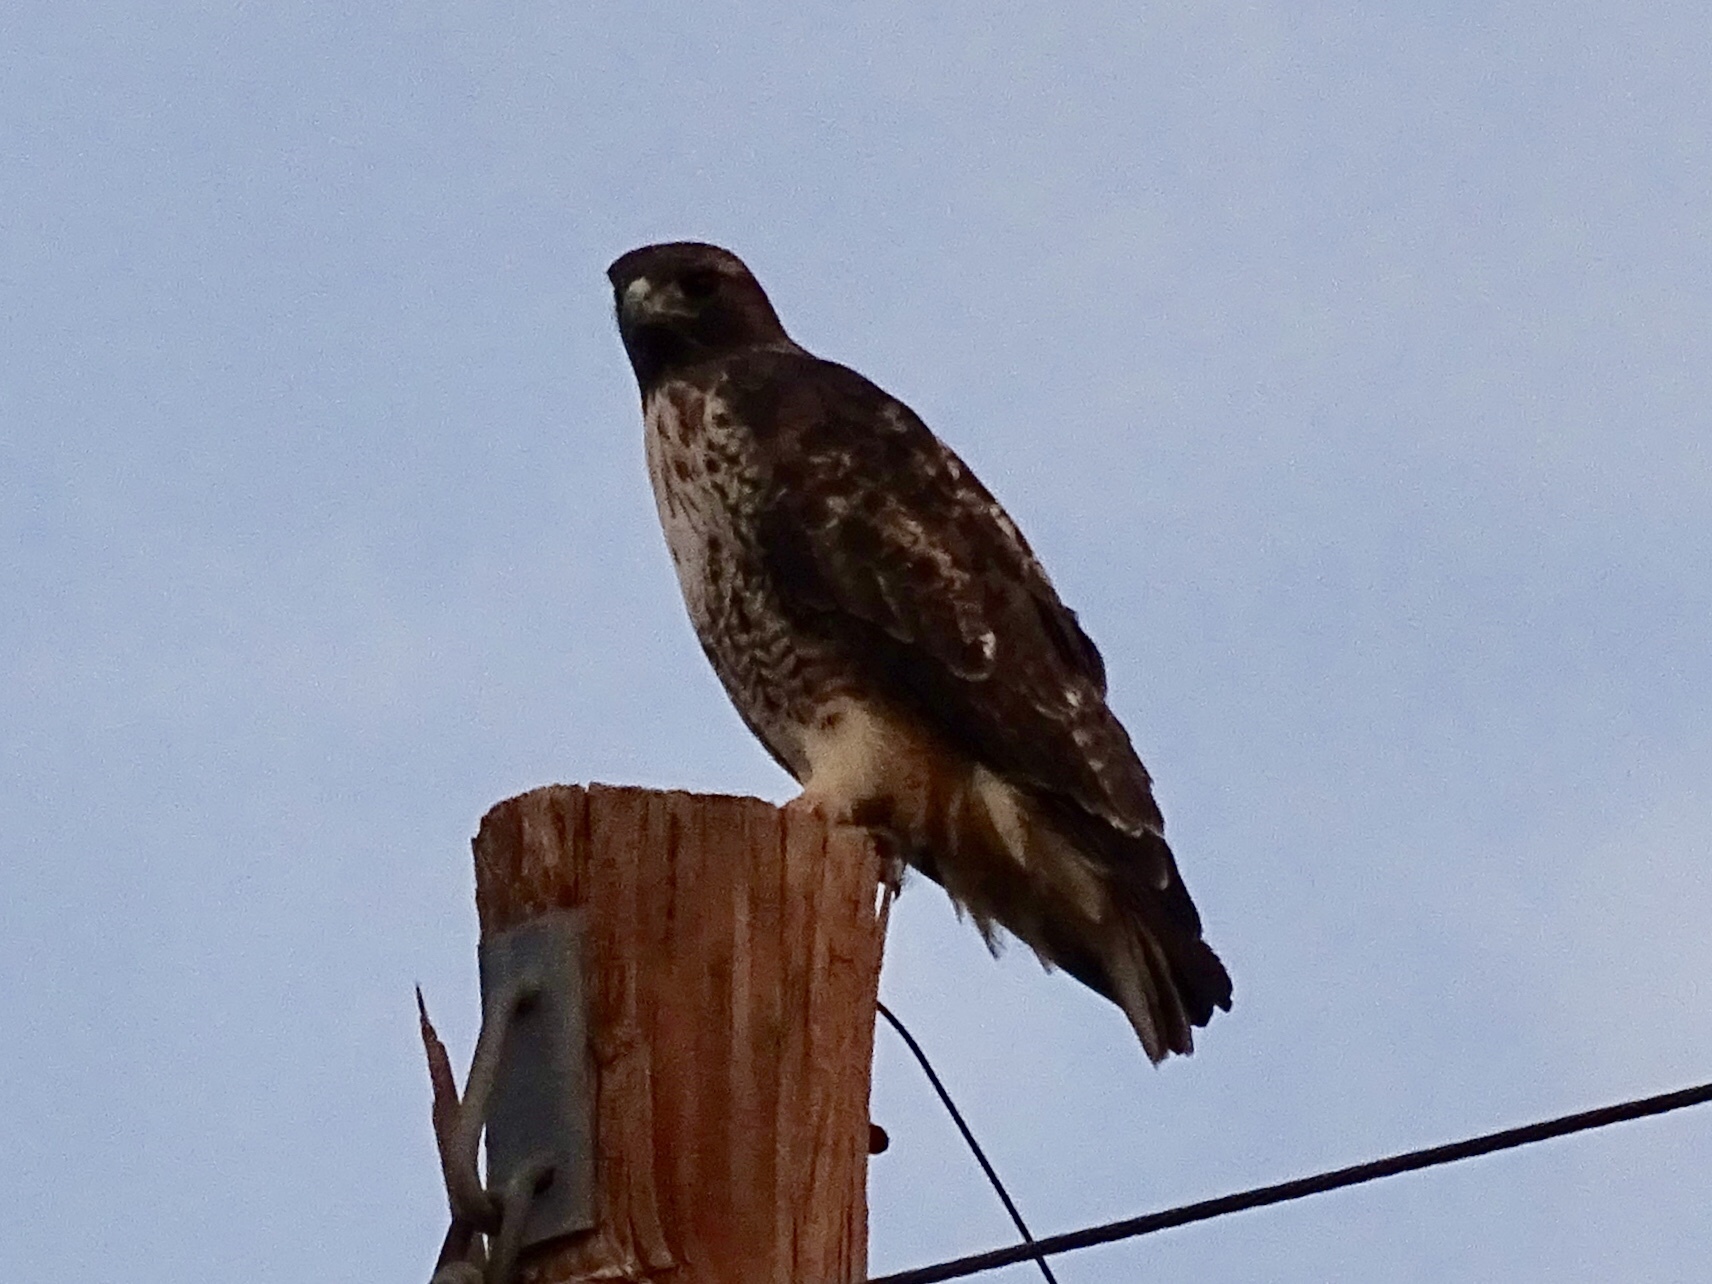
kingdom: Animalia
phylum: Chordata
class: Aves
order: Accipitriformes
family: Accipitridae
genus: Buteo
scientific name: Buteo jamaicensis
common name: Red-tailed hawk
